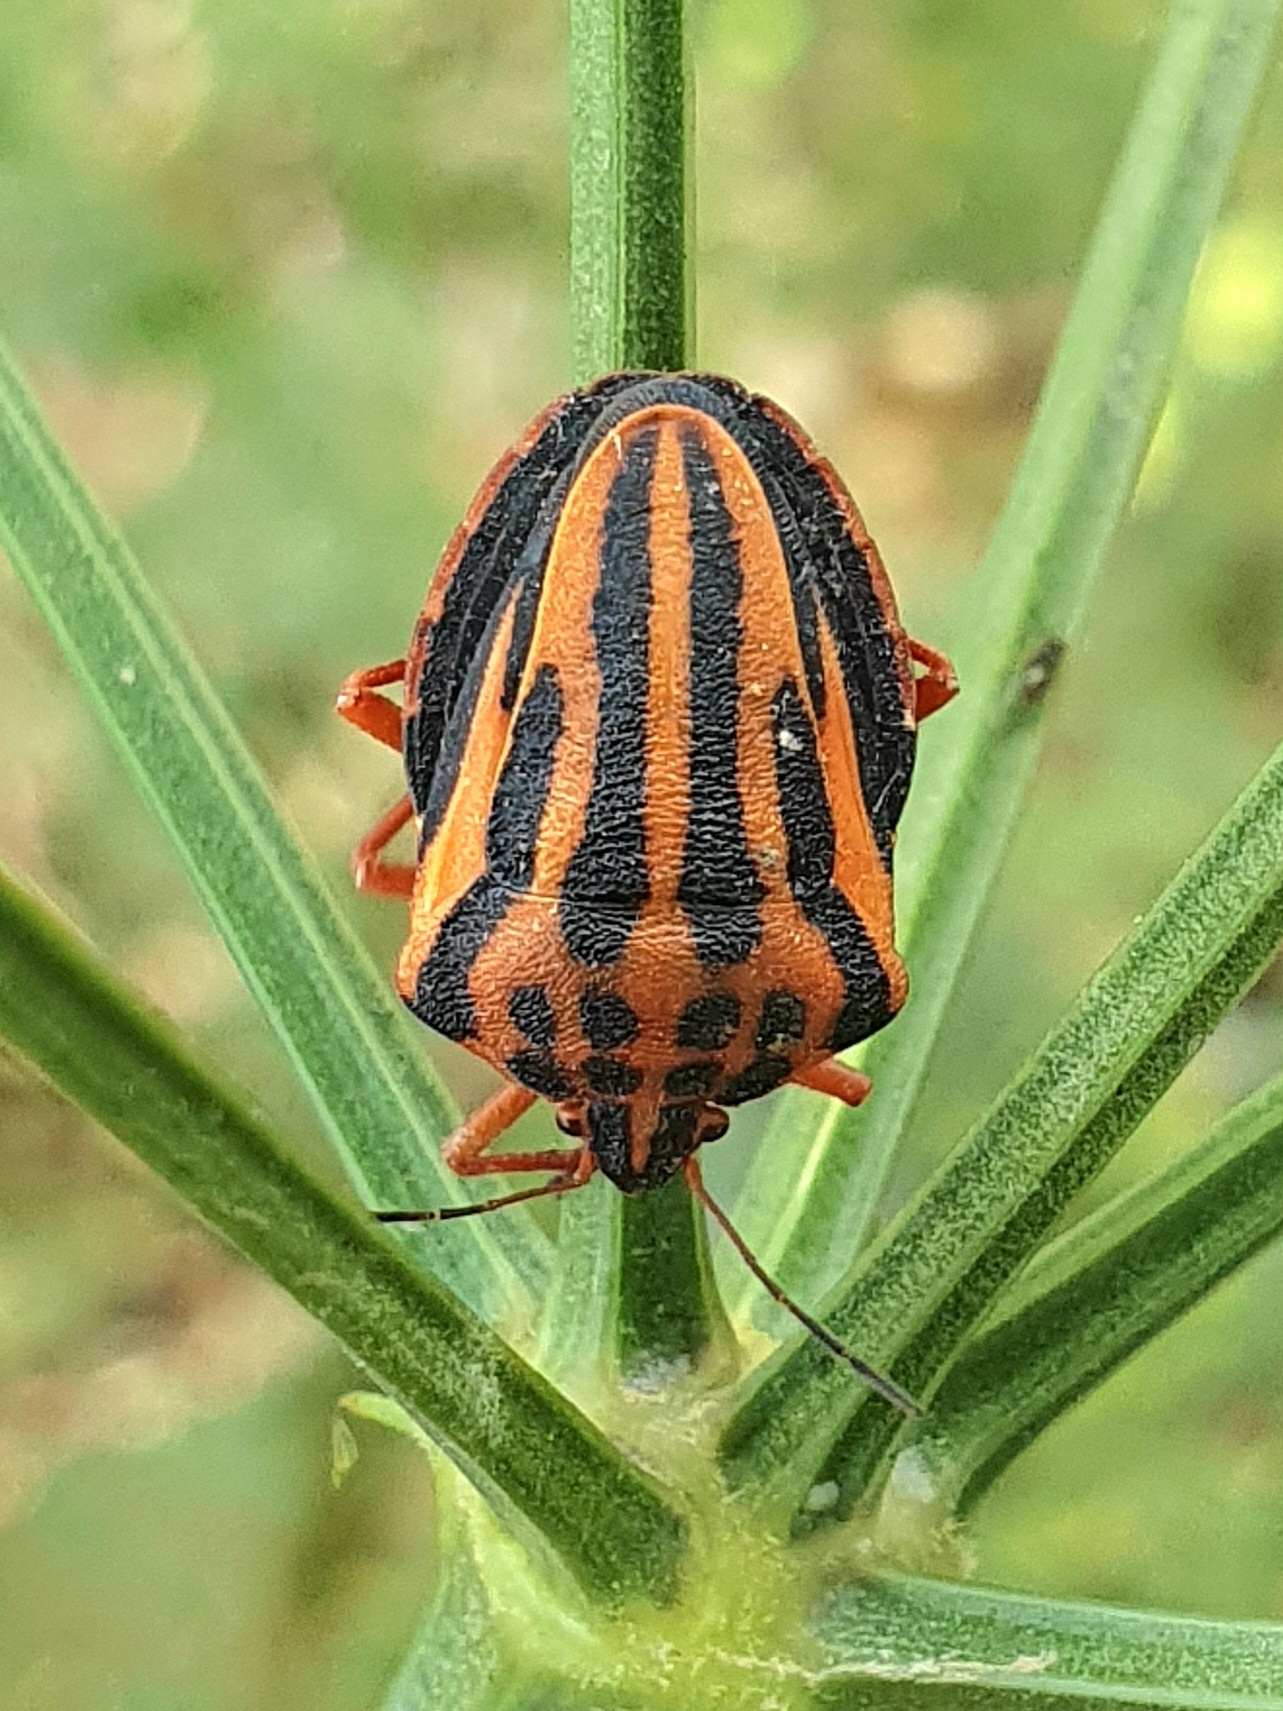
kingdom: Animalia
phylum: Arthropoda
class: Insecta
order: Hemiptera
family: Pentatomidae
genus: Graphosoma
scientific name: Graphosoma semipunctatum
